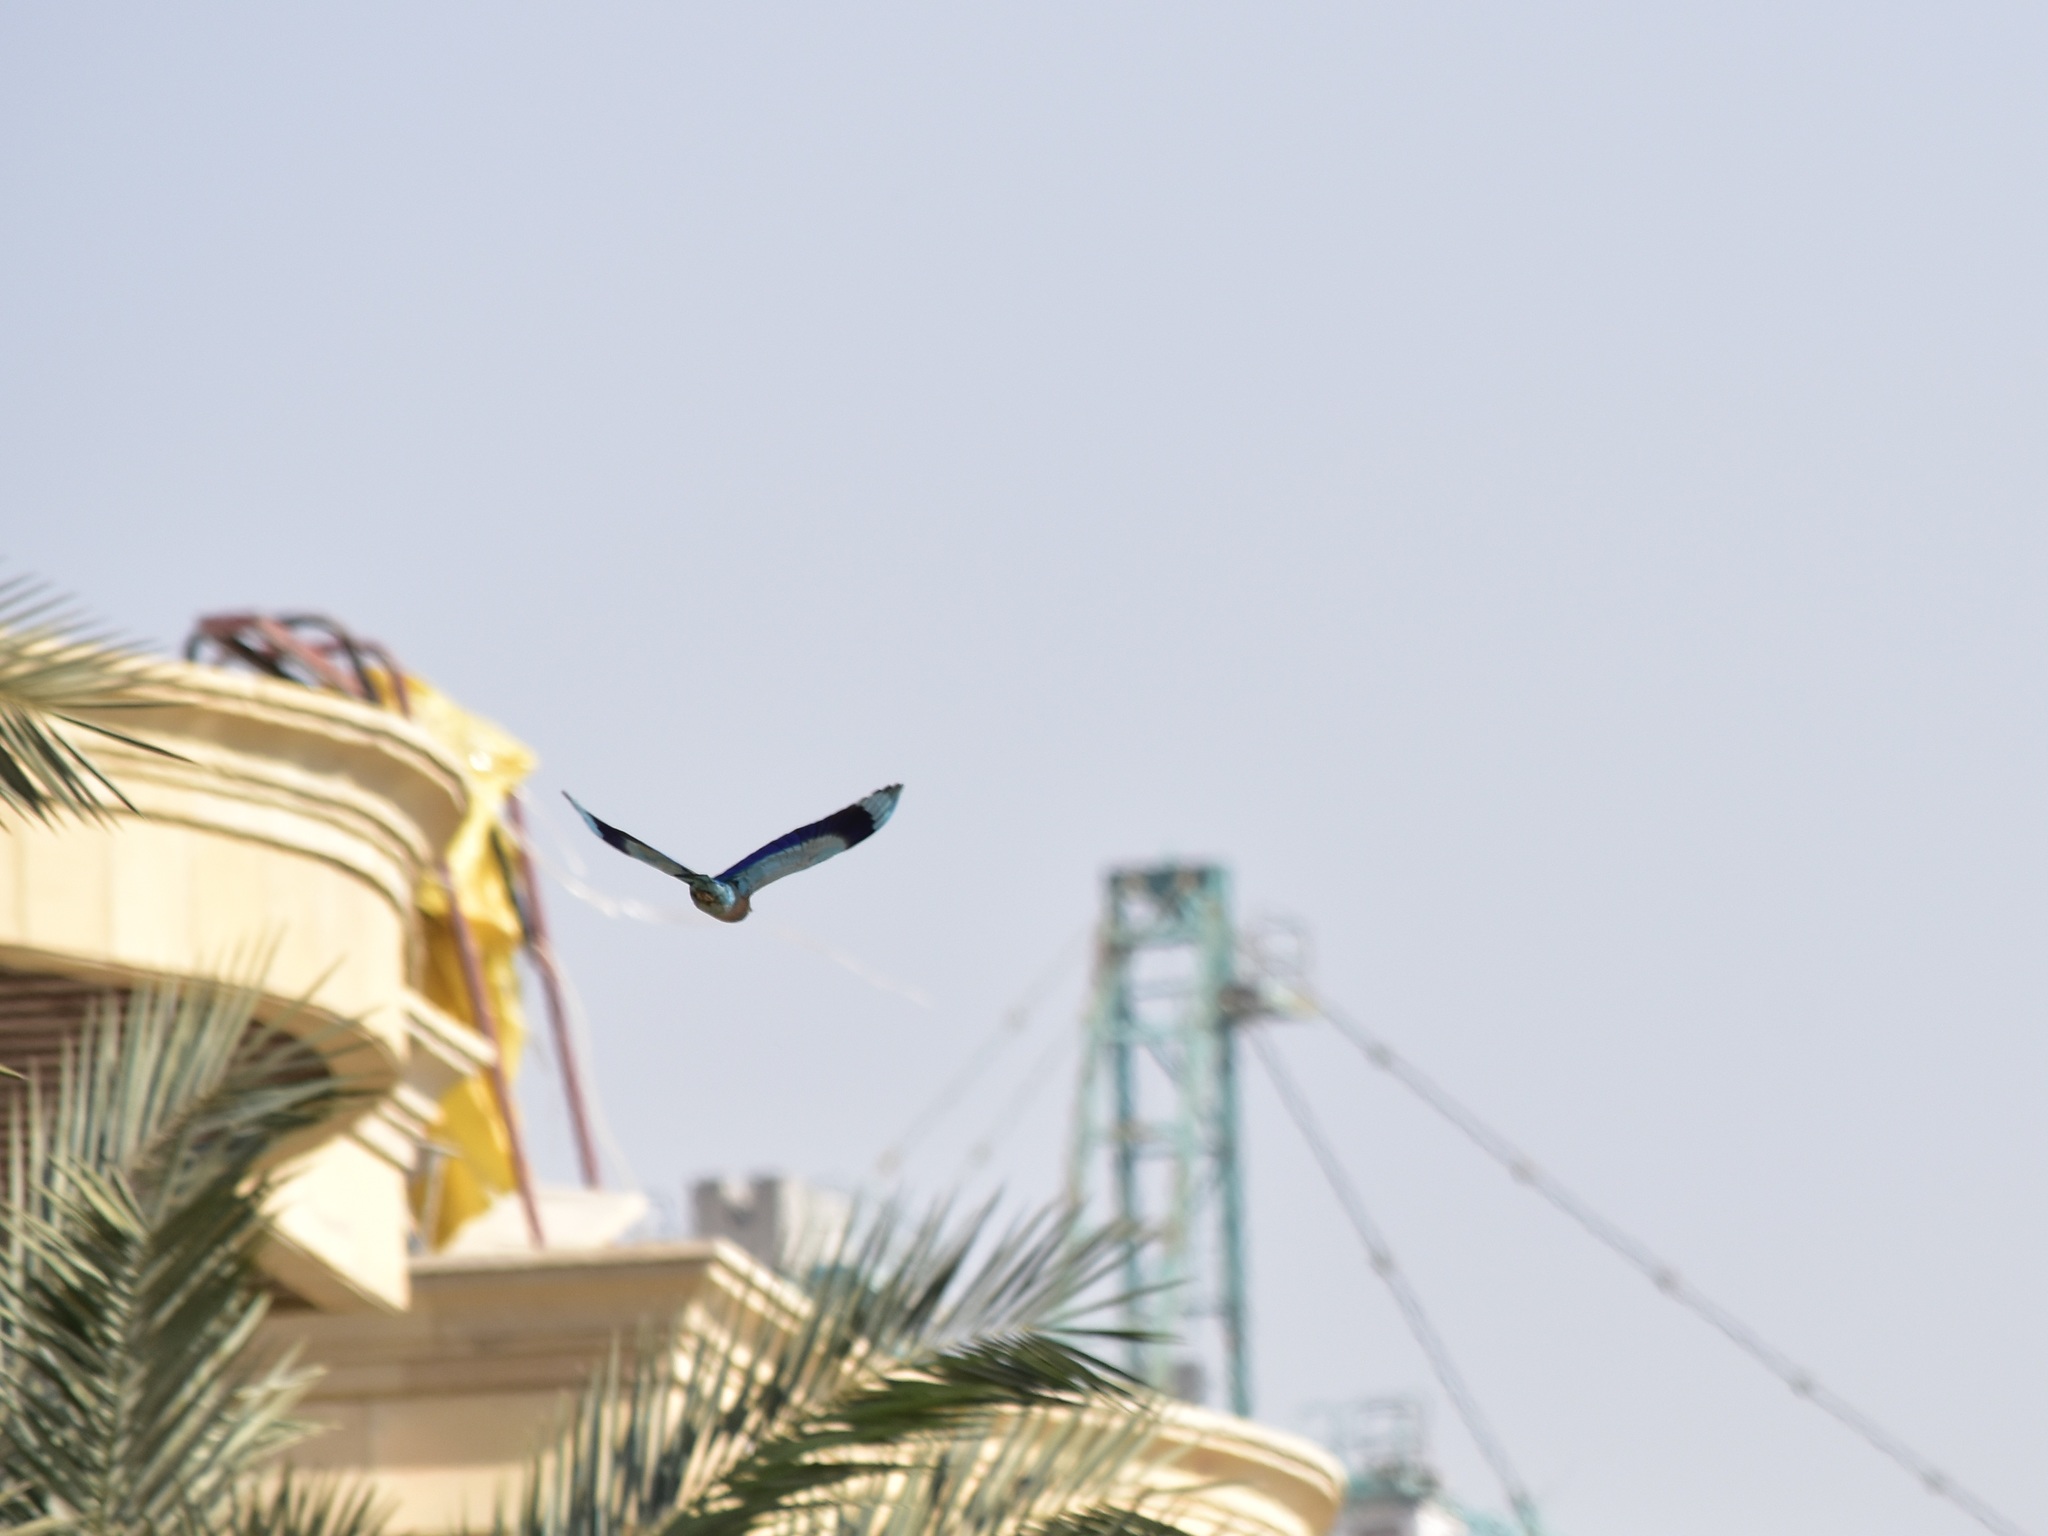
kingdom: Animalia
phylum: Chordata
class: Aves
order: Coraciiformes
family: Coraciidae
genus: Coracias
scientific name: Coracias benghalensis
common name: Indian roller
